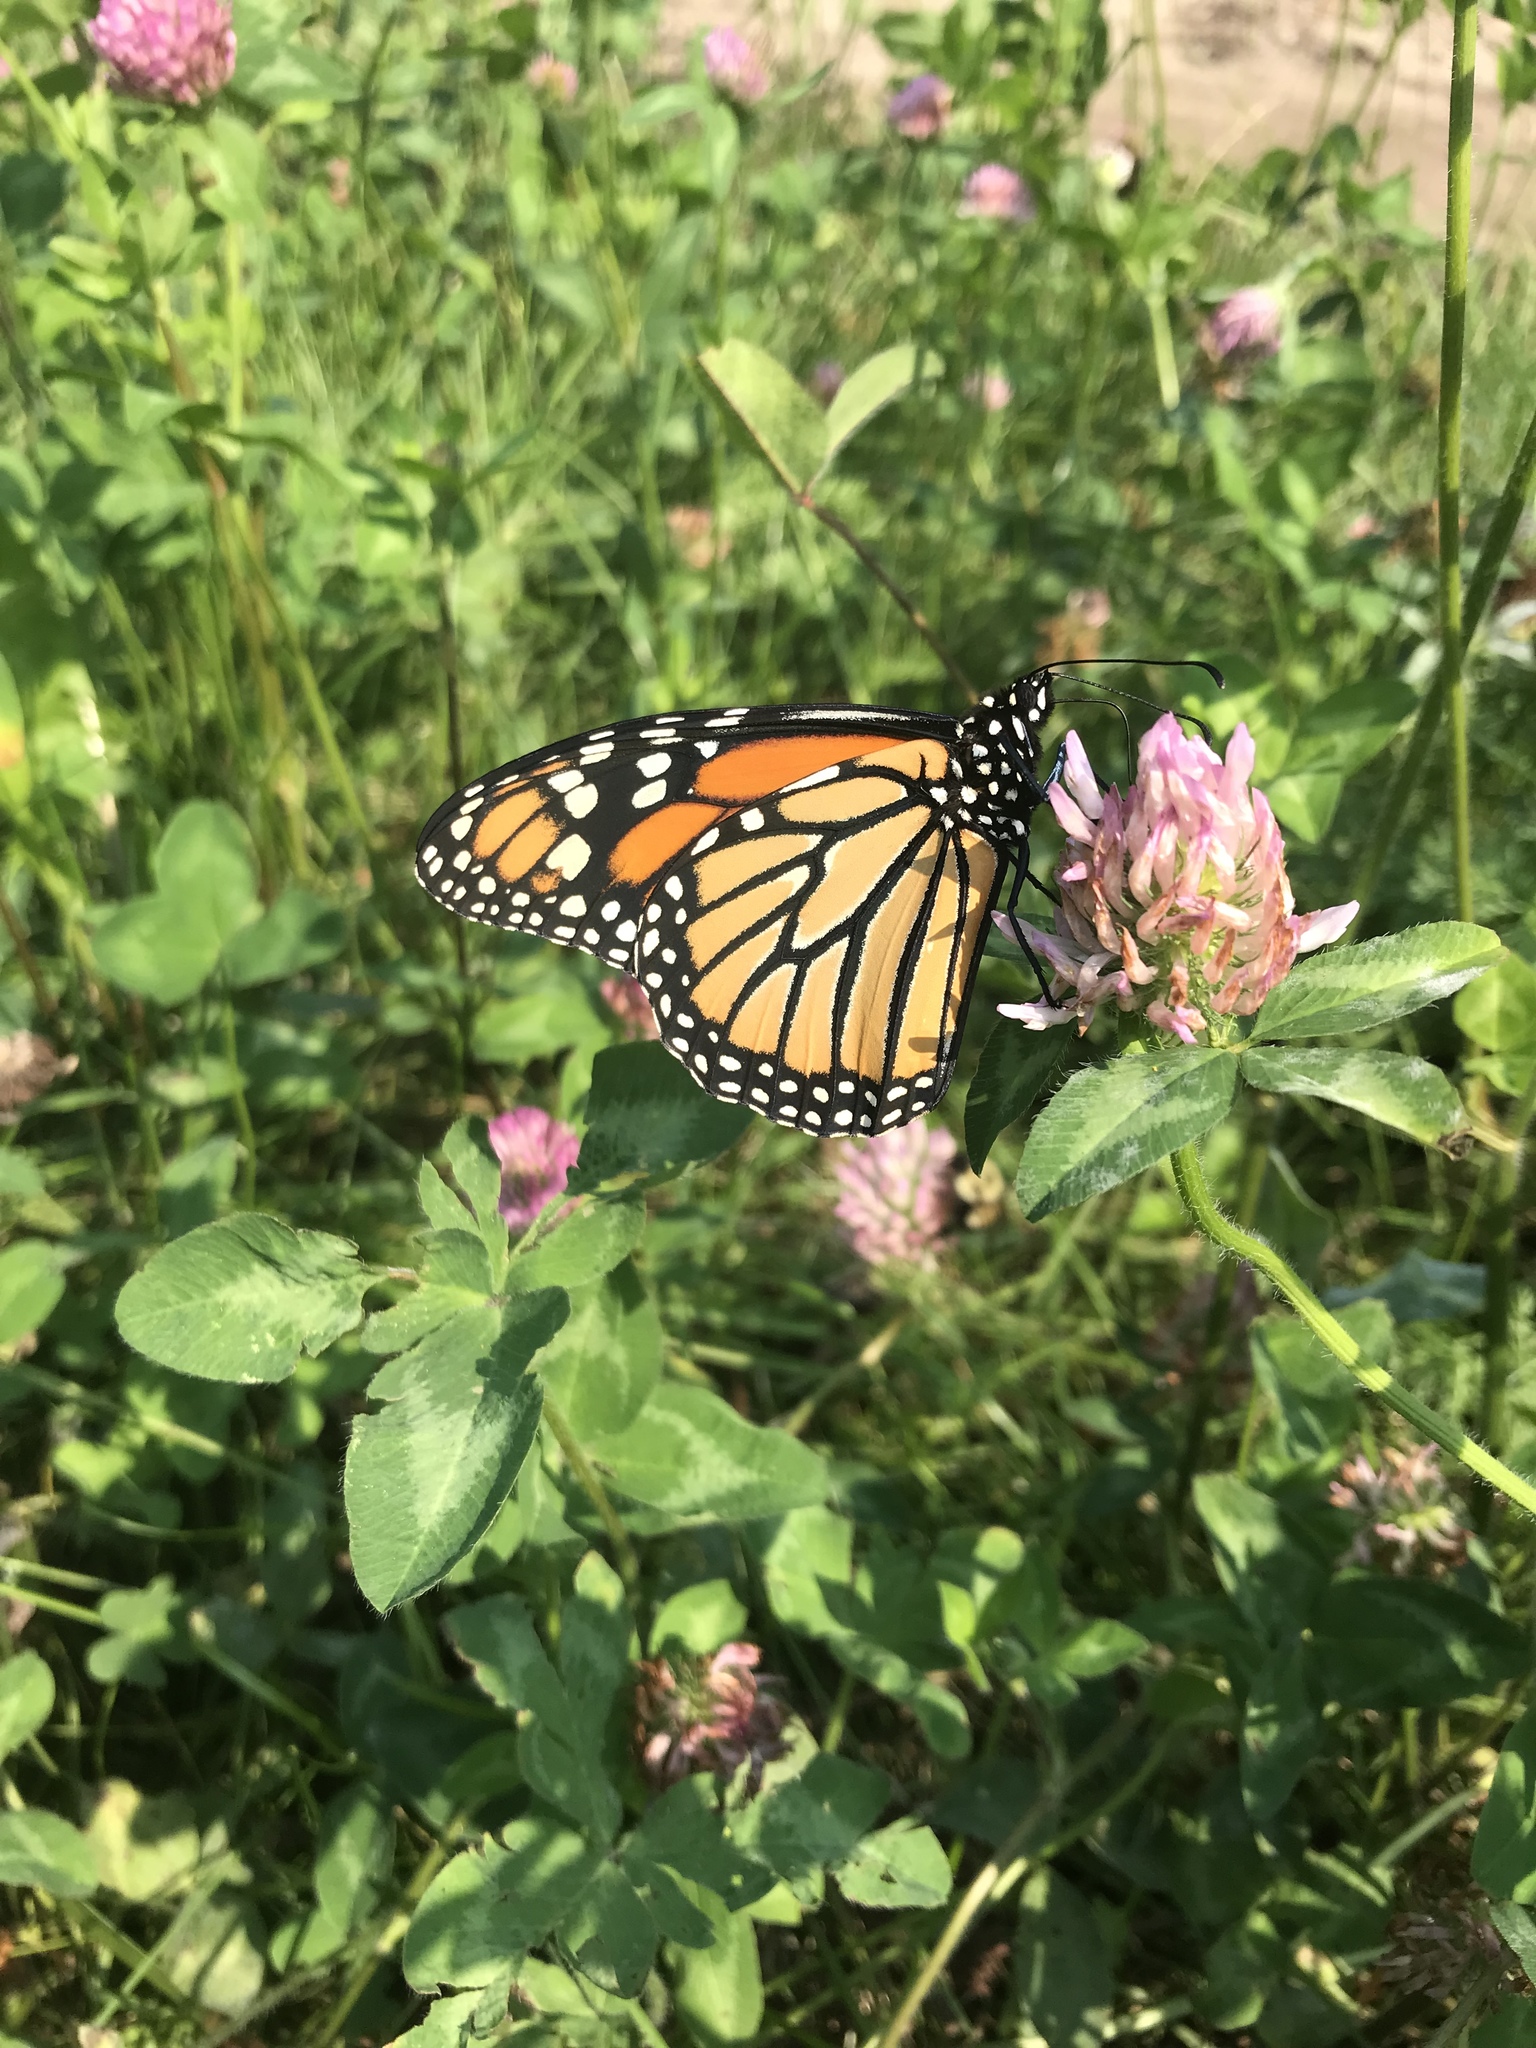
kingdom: Animalia
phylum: Arthropoda
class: Insecta
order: Lepidoptera
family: Nymphalidae
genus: Danaus
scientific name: Danaus plexippus
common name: Monarch
